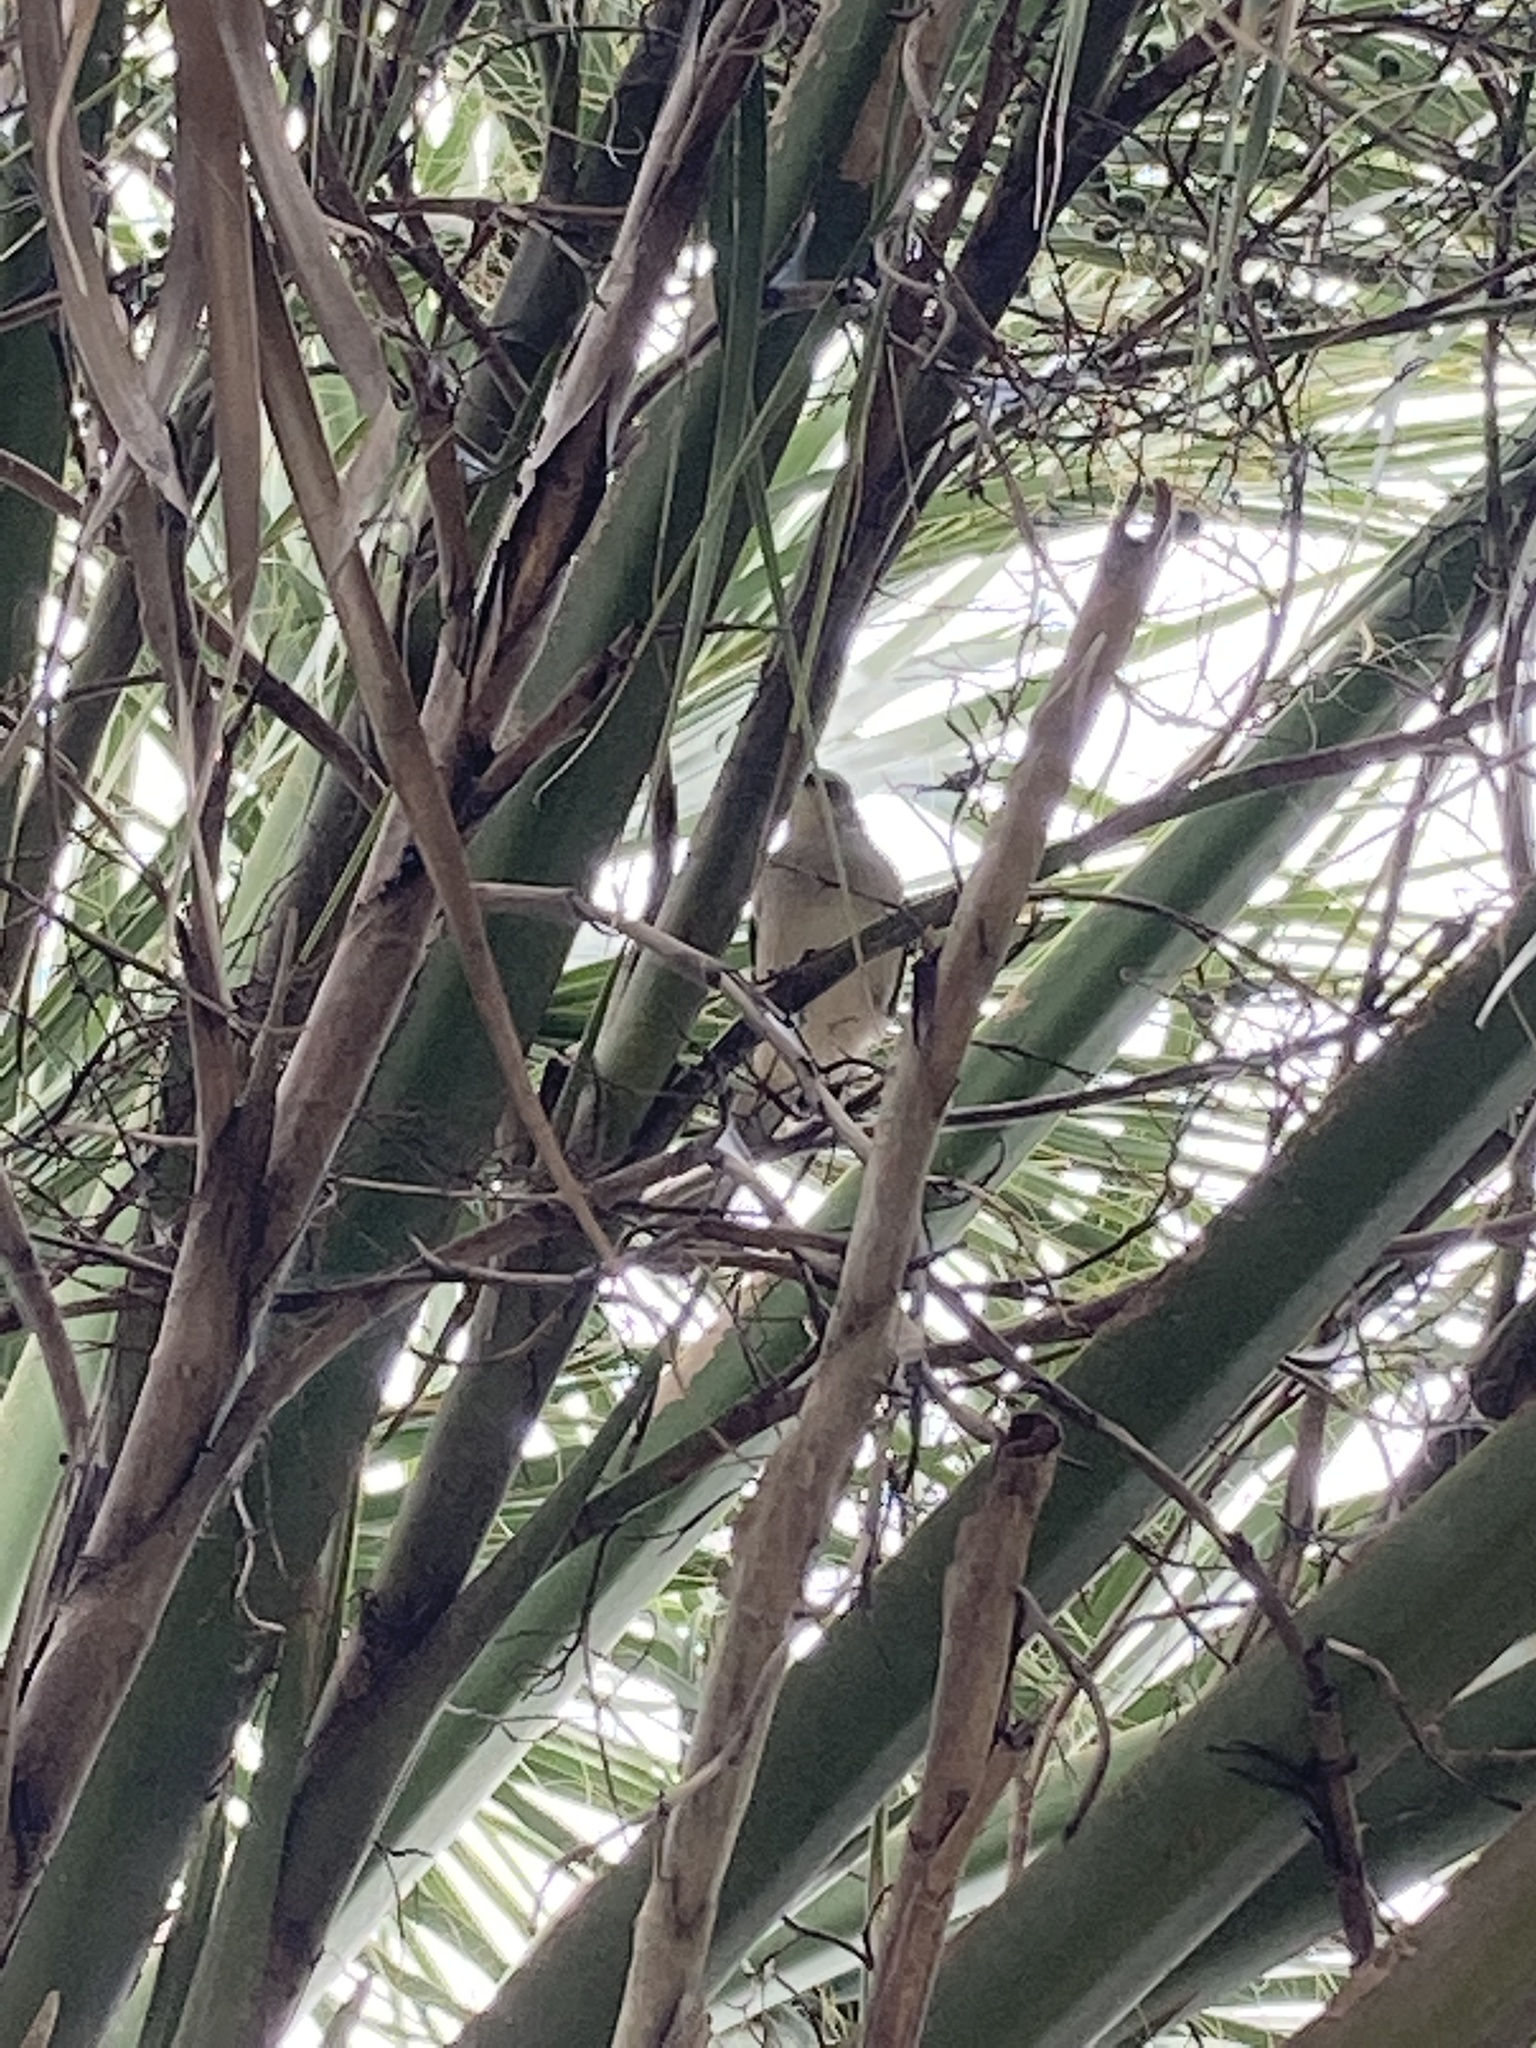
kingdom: Animalia
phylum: Chordata
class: Aves
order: Passeriformes
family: Mimidae
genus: Mimus
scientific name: Mimus polyglottos
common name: Northern mockingbird
